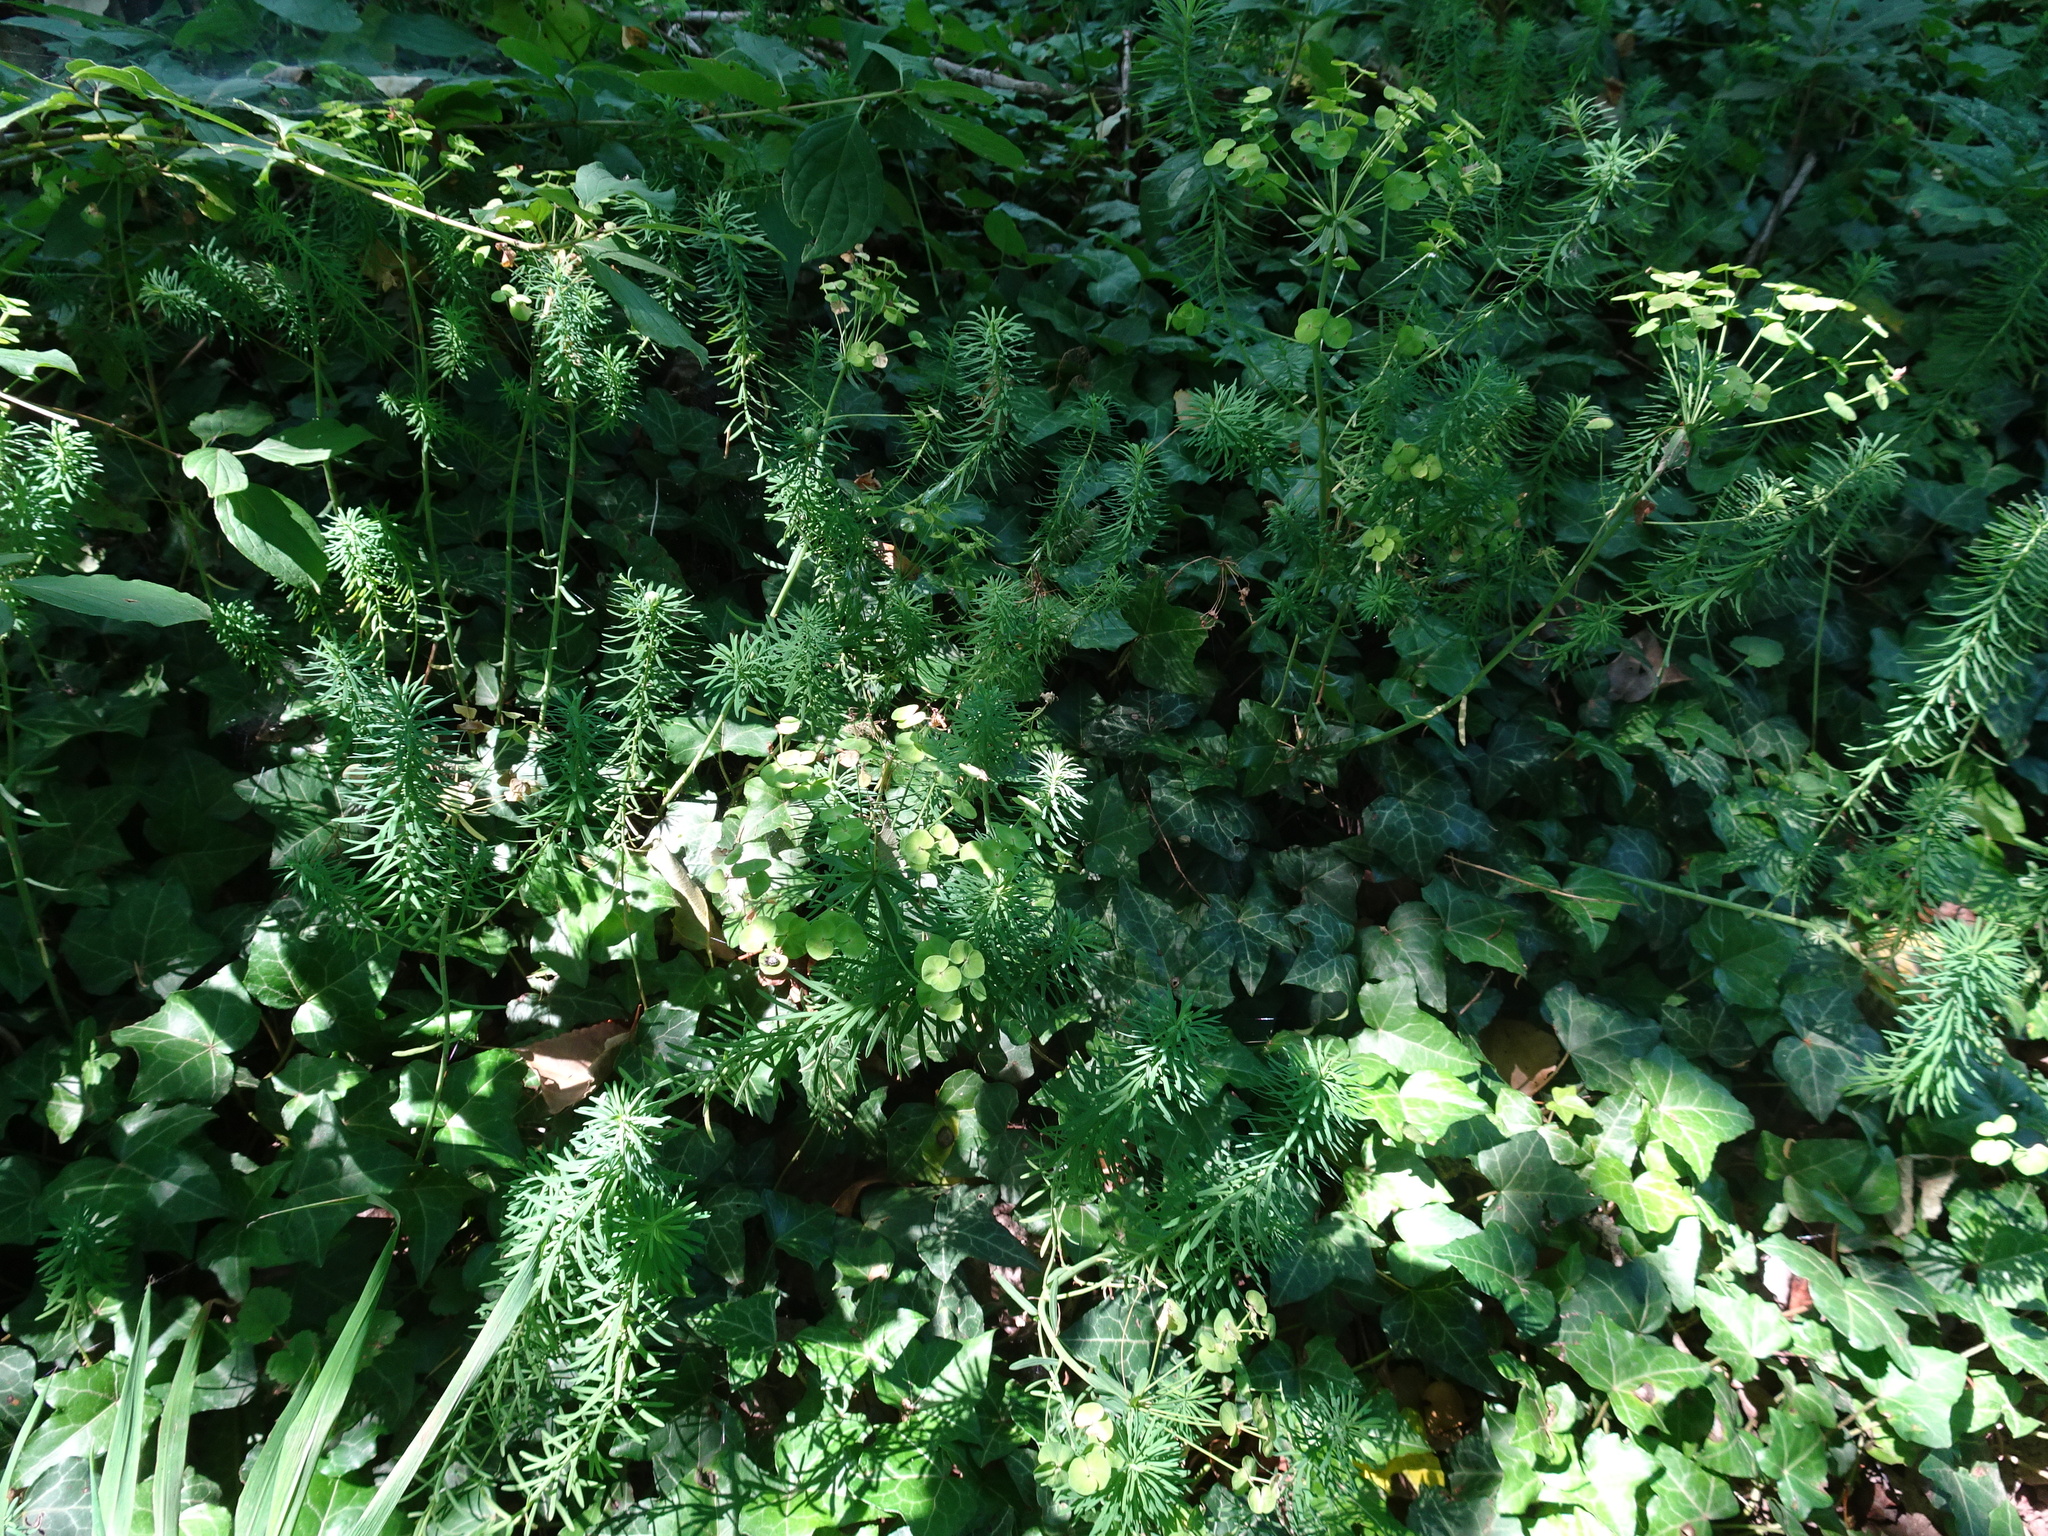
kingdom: Plantae
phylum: Tracheophyta
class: Magnoliopsida
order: Malpighiales
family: Euphorbiaceae
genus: Euphorbia
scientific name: Euphorbia cyparissias
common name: Cypress spurge
